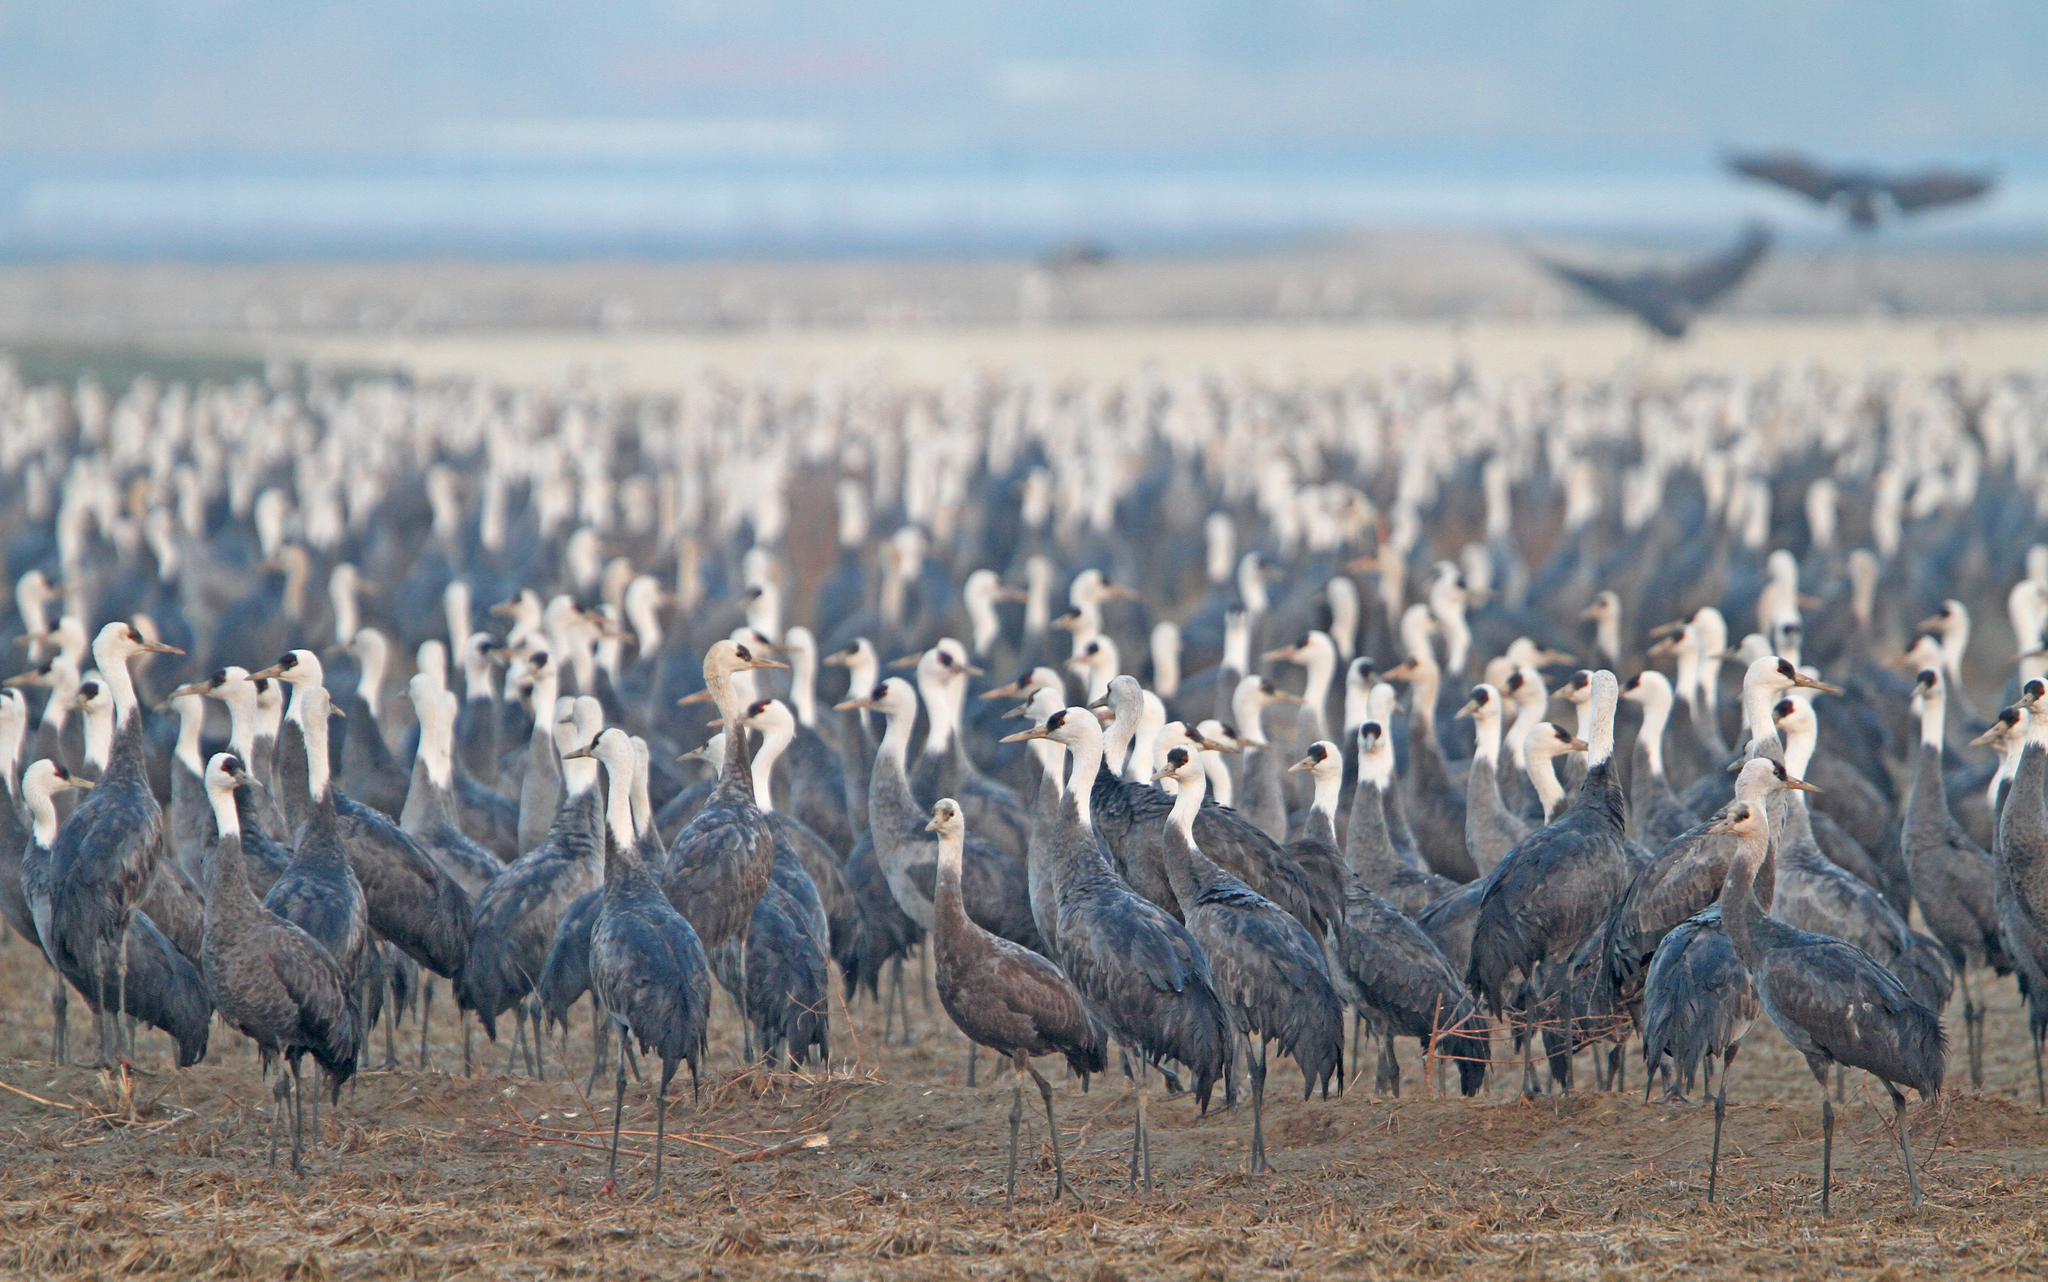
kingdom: Animalia
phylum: Chordata
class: Aves
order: Gruiformes
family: Gruidae
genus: Grus
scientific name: Grus monacha
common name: Hooded crane
